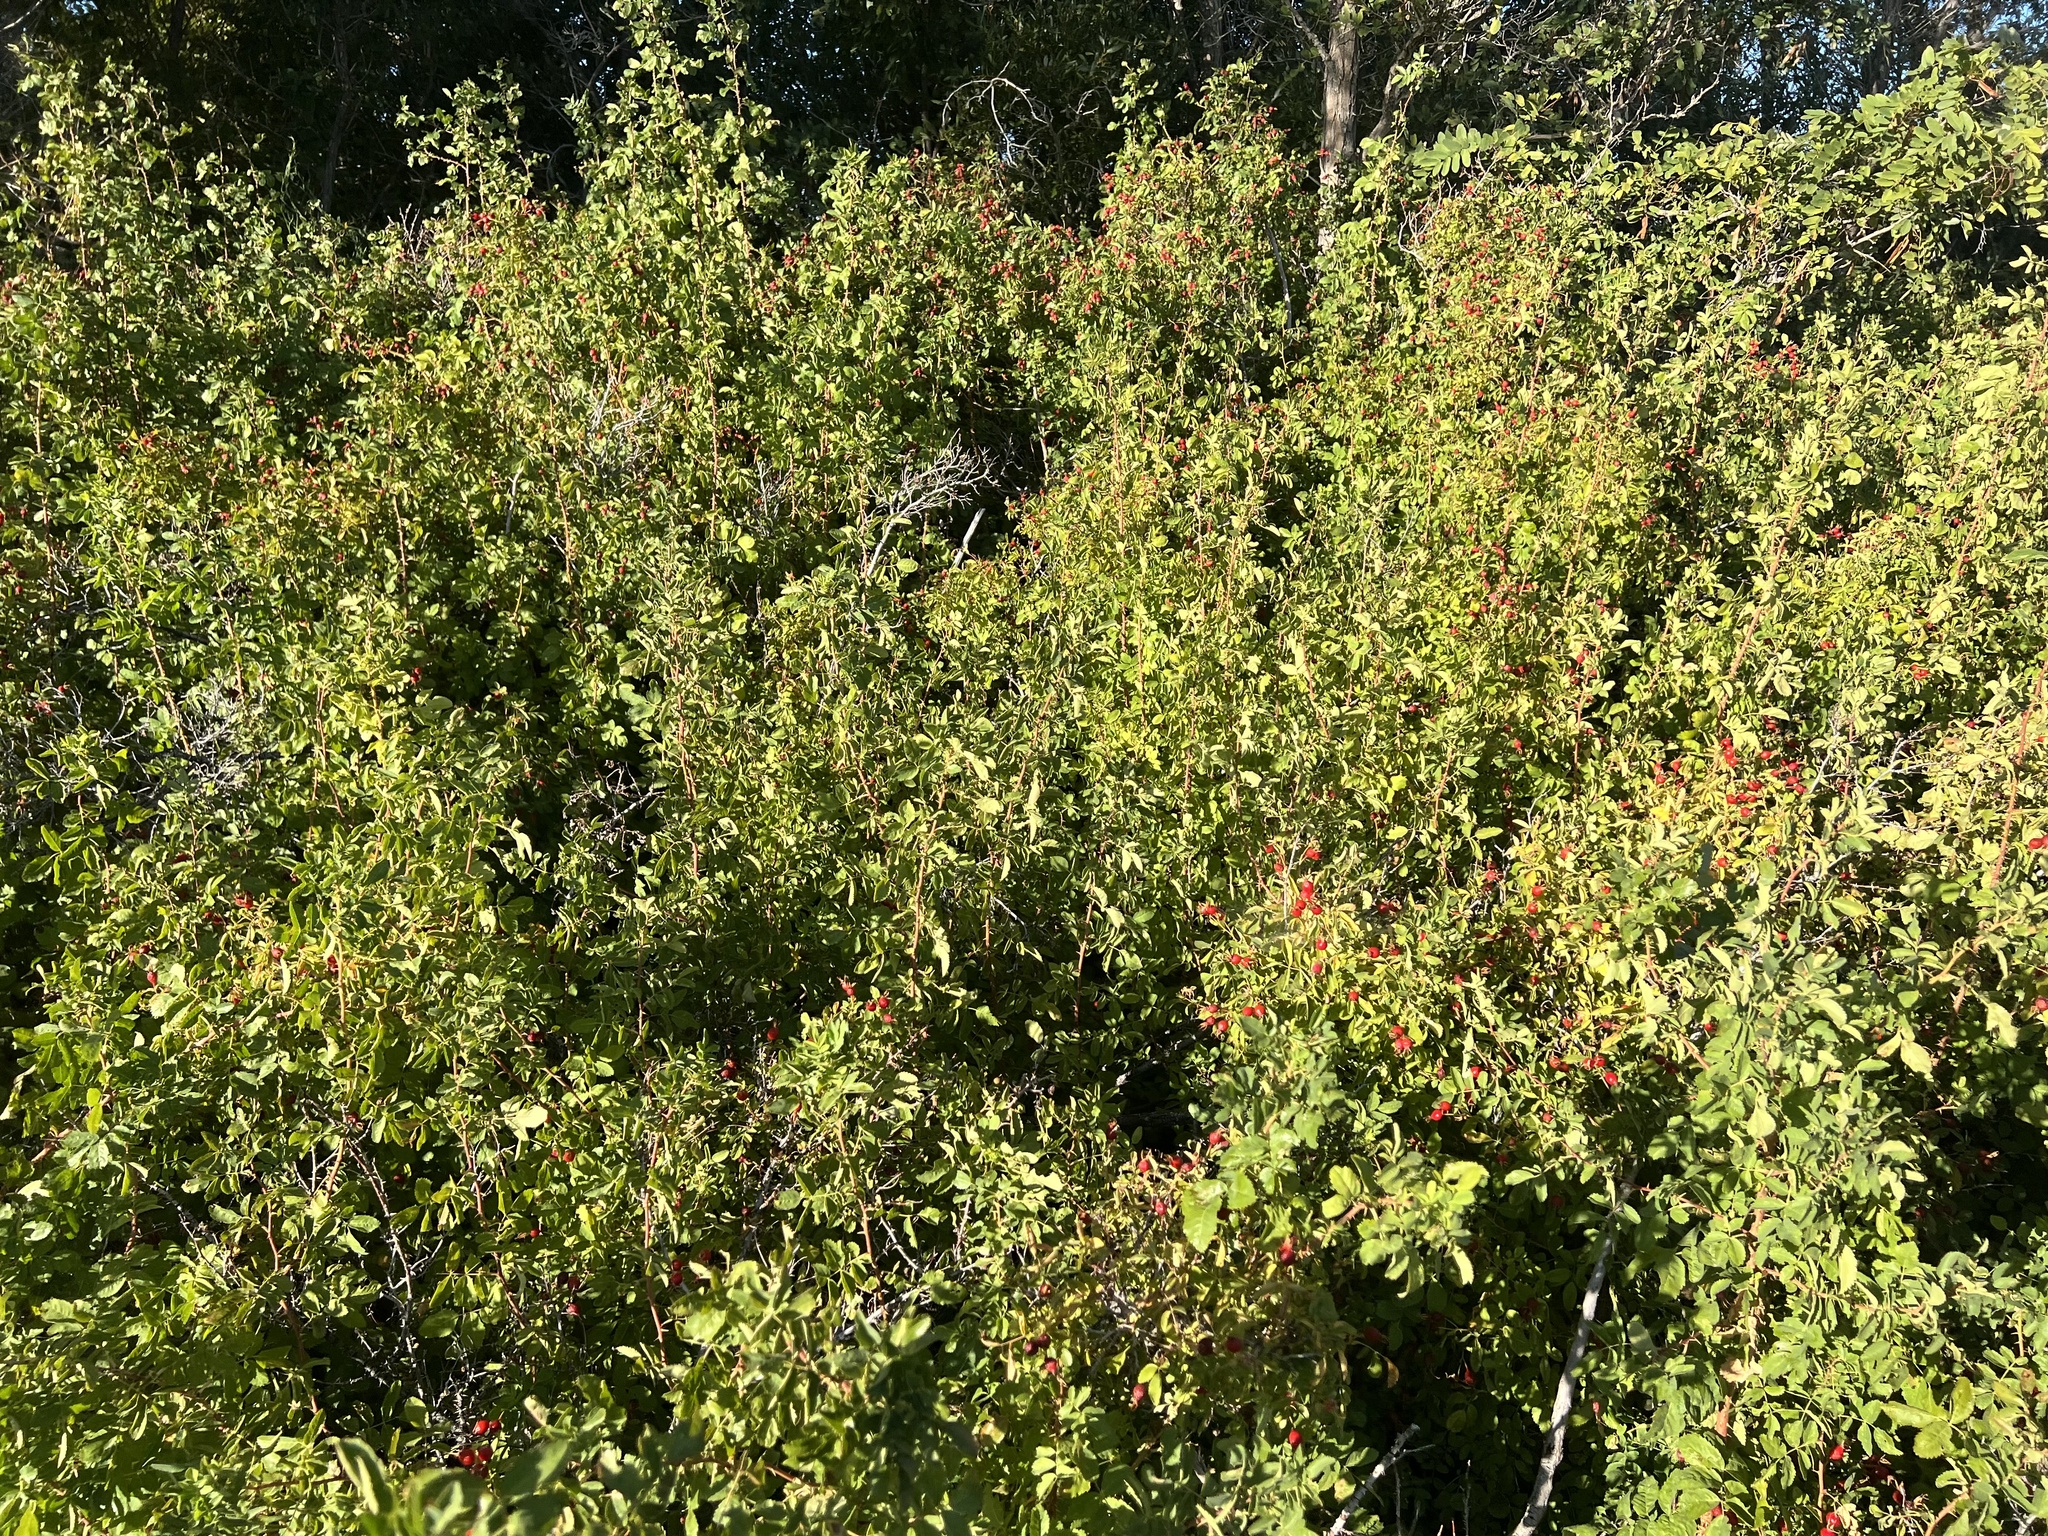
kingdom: Plantae
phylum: Tracheophyta
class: Magnoliopsida
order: Rosales
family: Rosaceae
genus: Rosa
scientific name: Rosa woodsii
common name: Woods's rose
